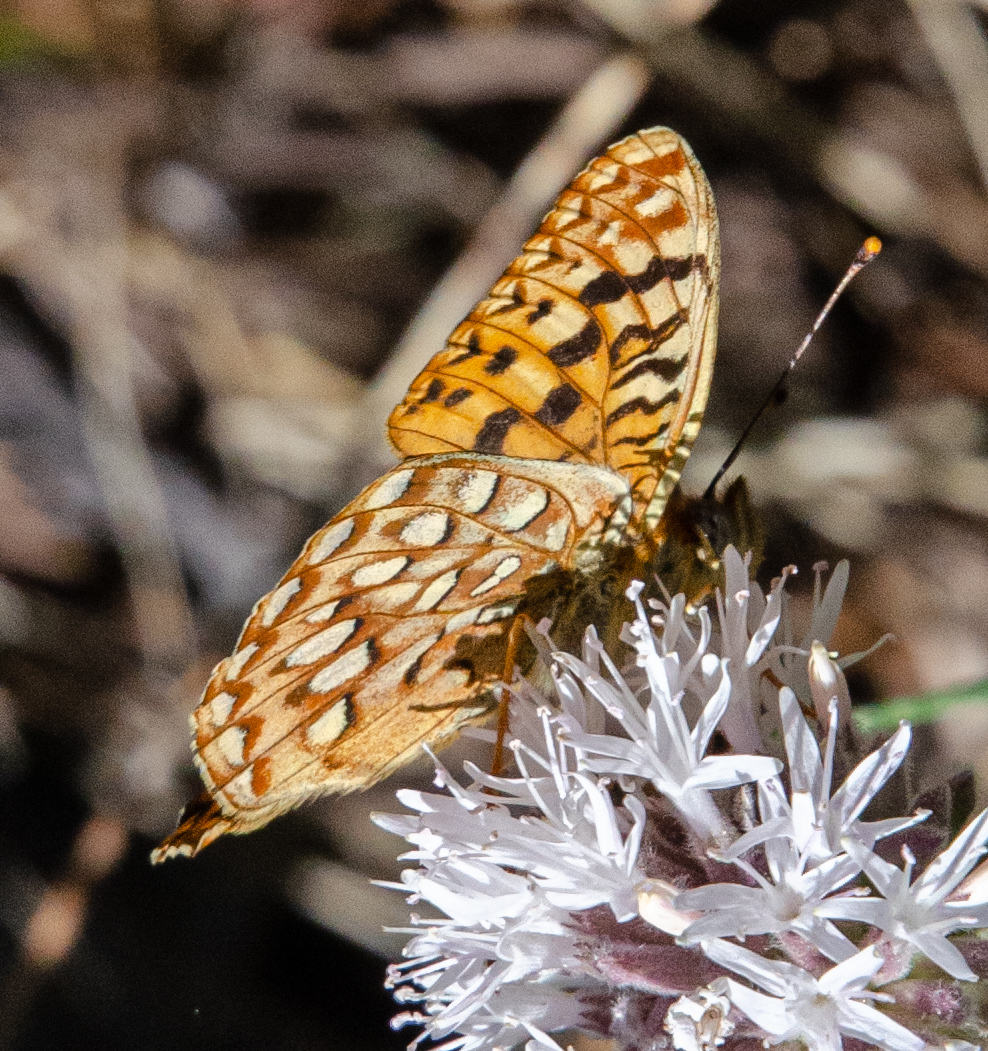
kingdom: Animalia
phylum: Arthropoda
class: Insecta
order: Lepidoptera
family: Nymphalidae
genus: Speyeria
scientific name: Speyeria egleis
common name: Great basin fritillary
